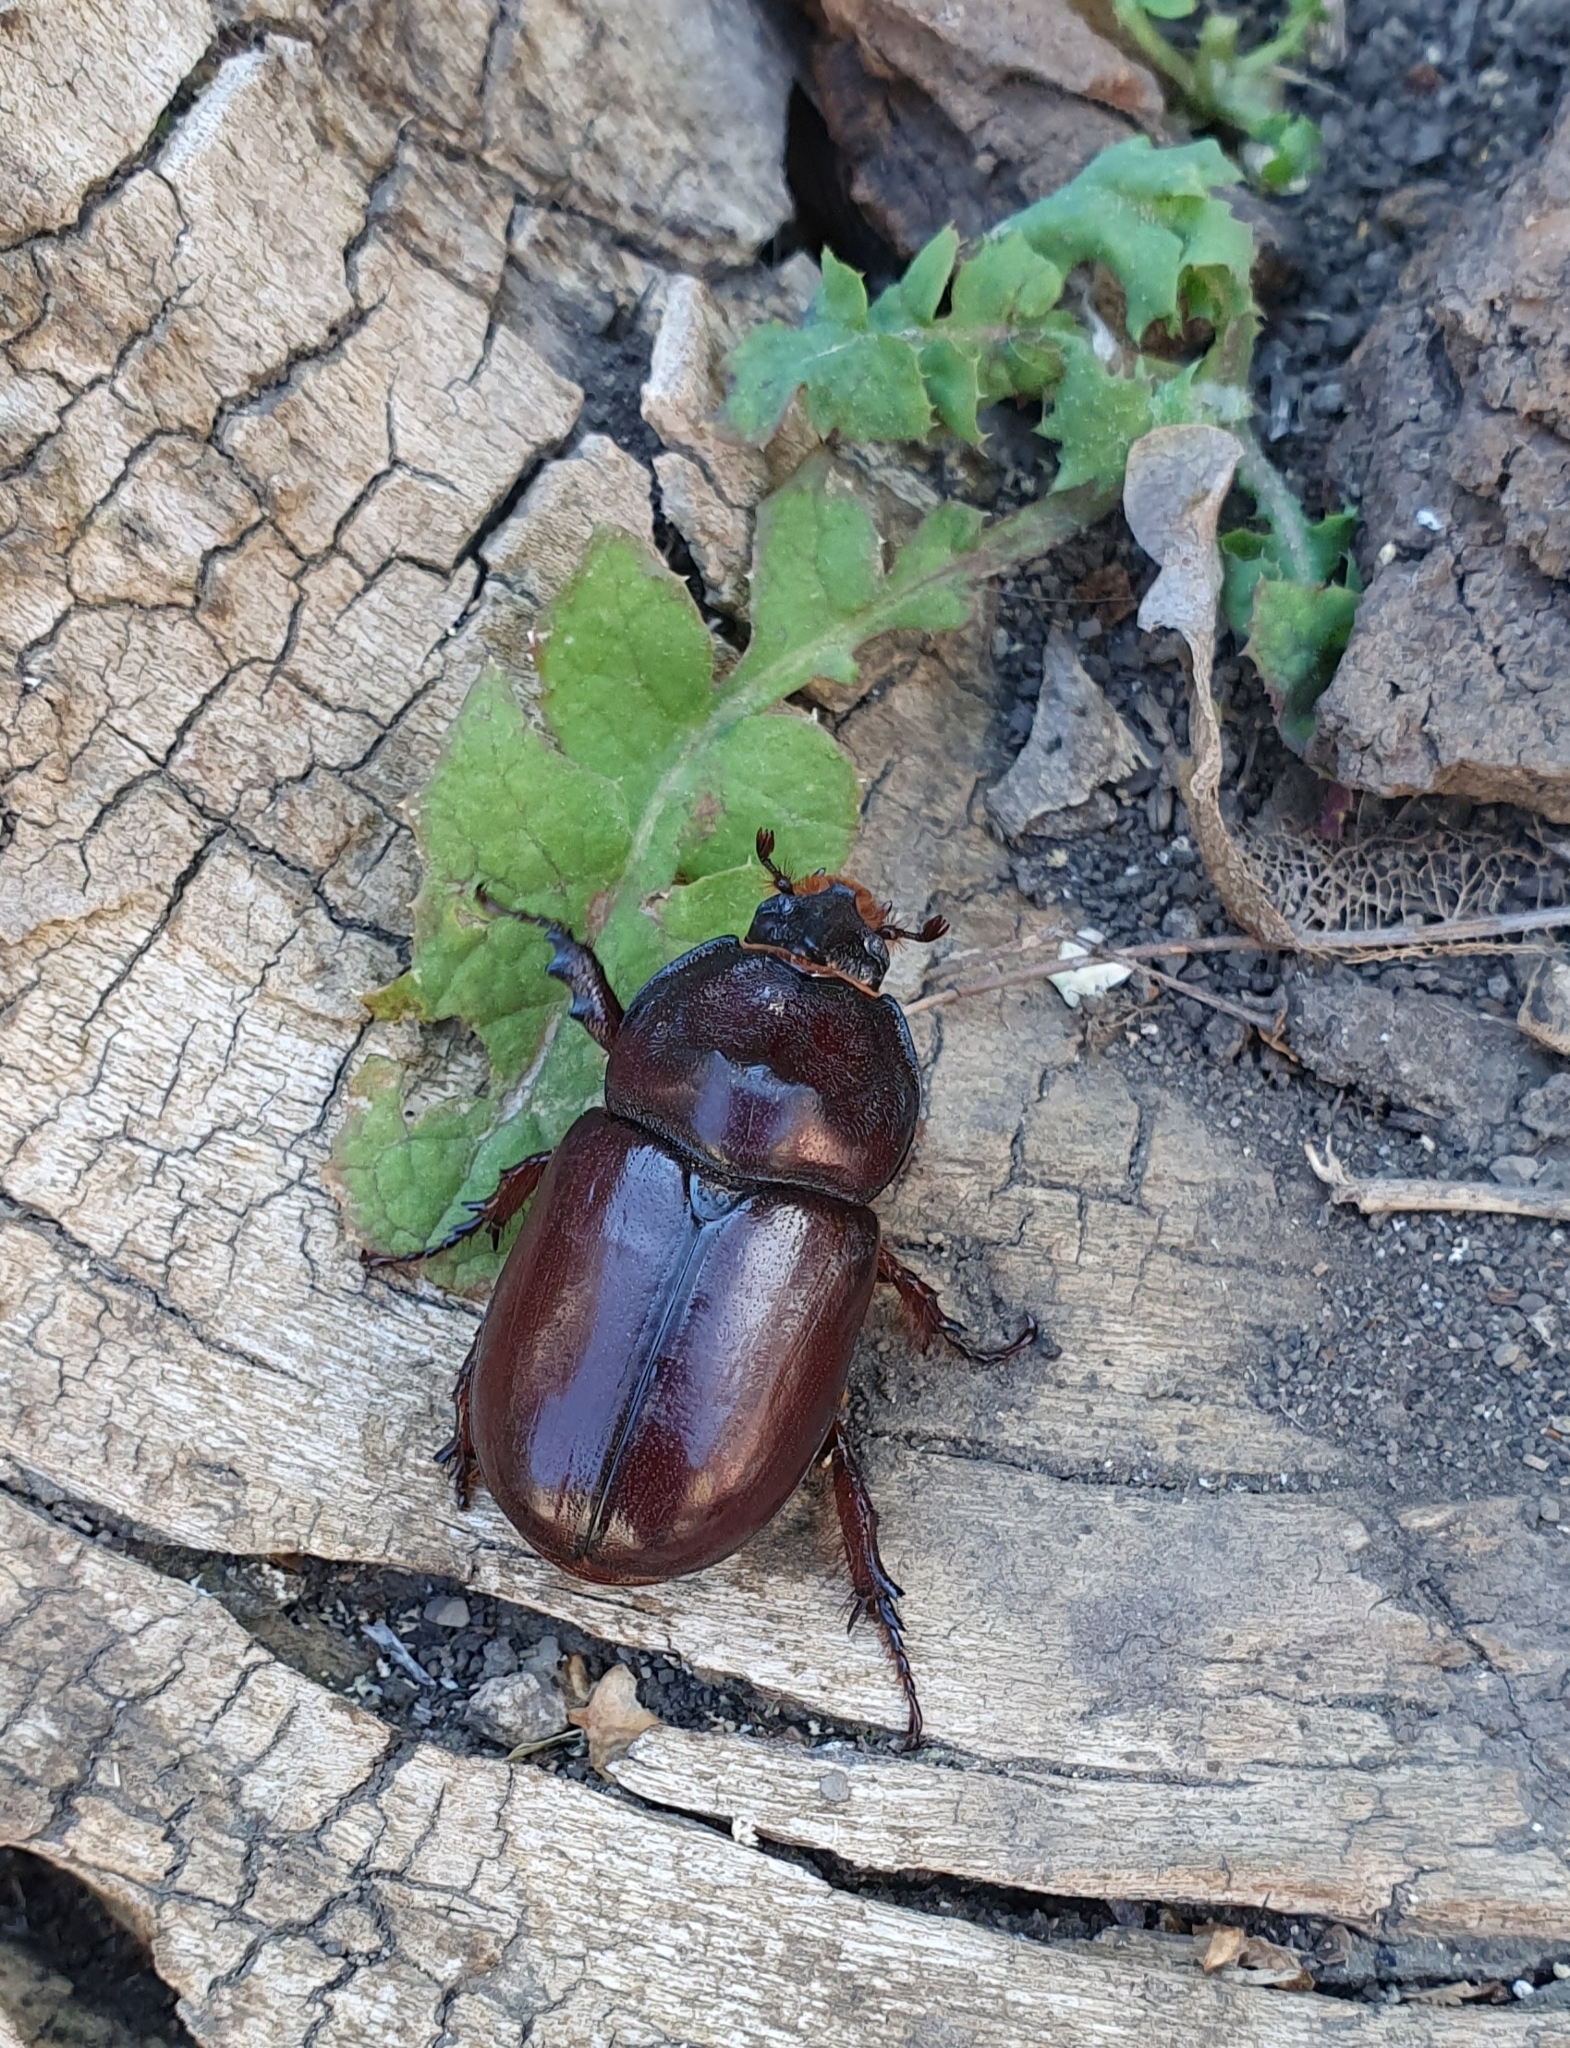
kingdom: Animalia
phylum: Arthropoda
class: Insecta
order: Coleoptera
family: Scarabaeidae
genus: Oryctes
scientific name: Oryctes nasicornis
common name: European rhinoceros beetle
